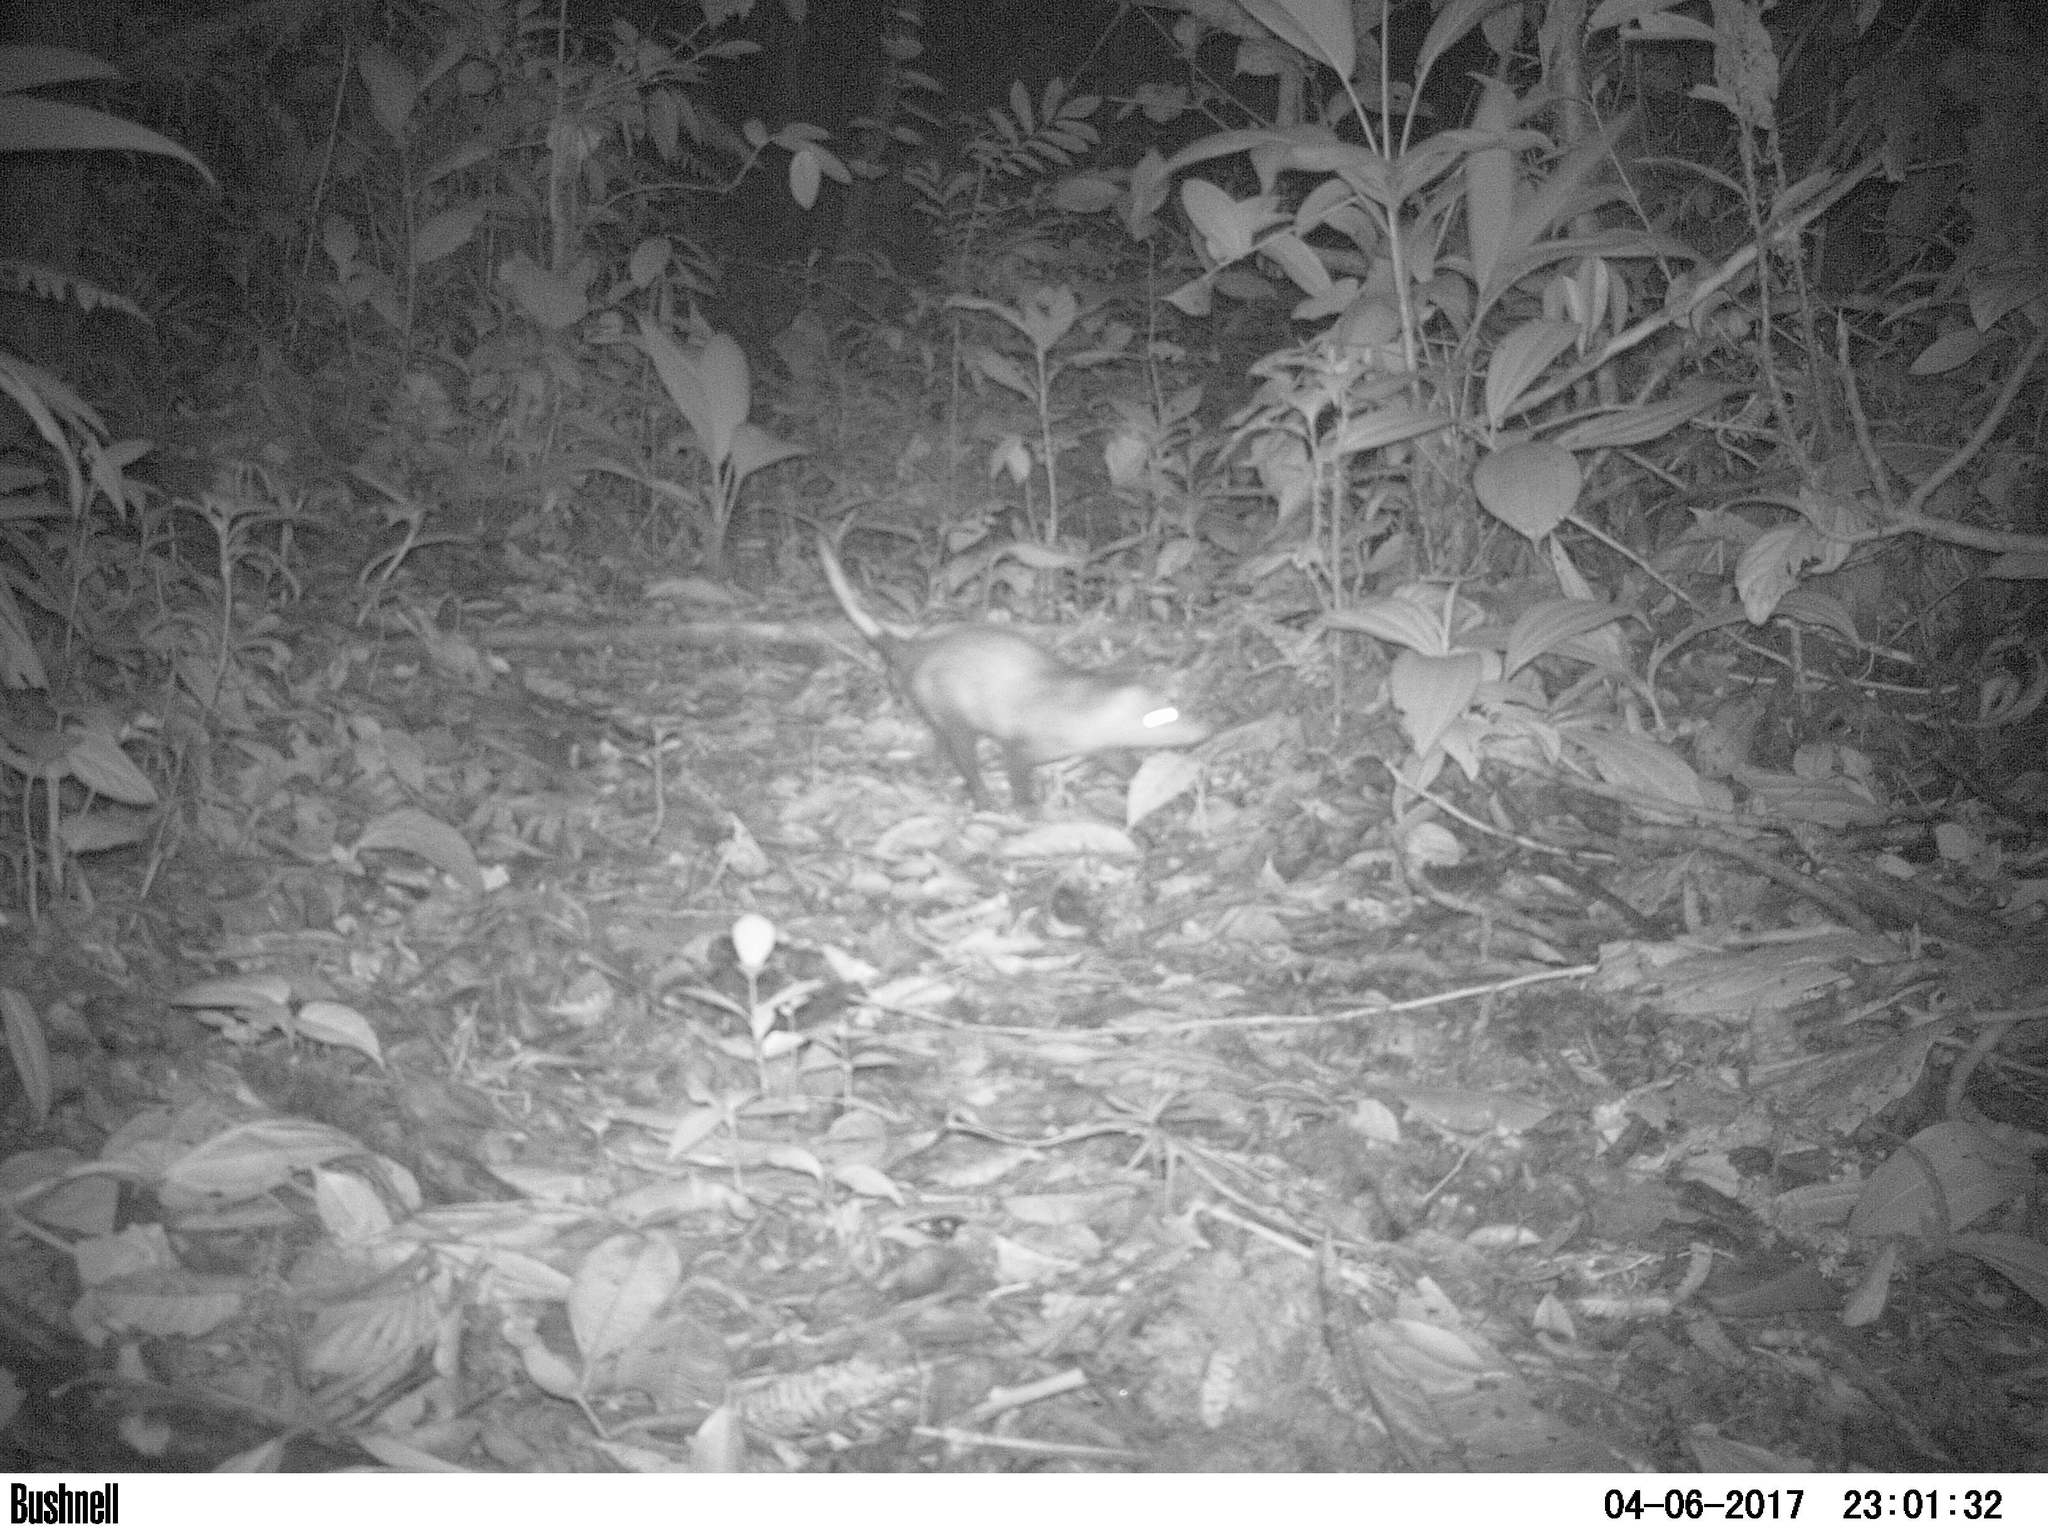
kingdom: Animalia
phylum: Chordata
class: Mammalia
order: Didelphimorphia
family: Didelphidae
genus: Didelphis
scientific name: Didelphis marsupialis
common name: Common opossum
